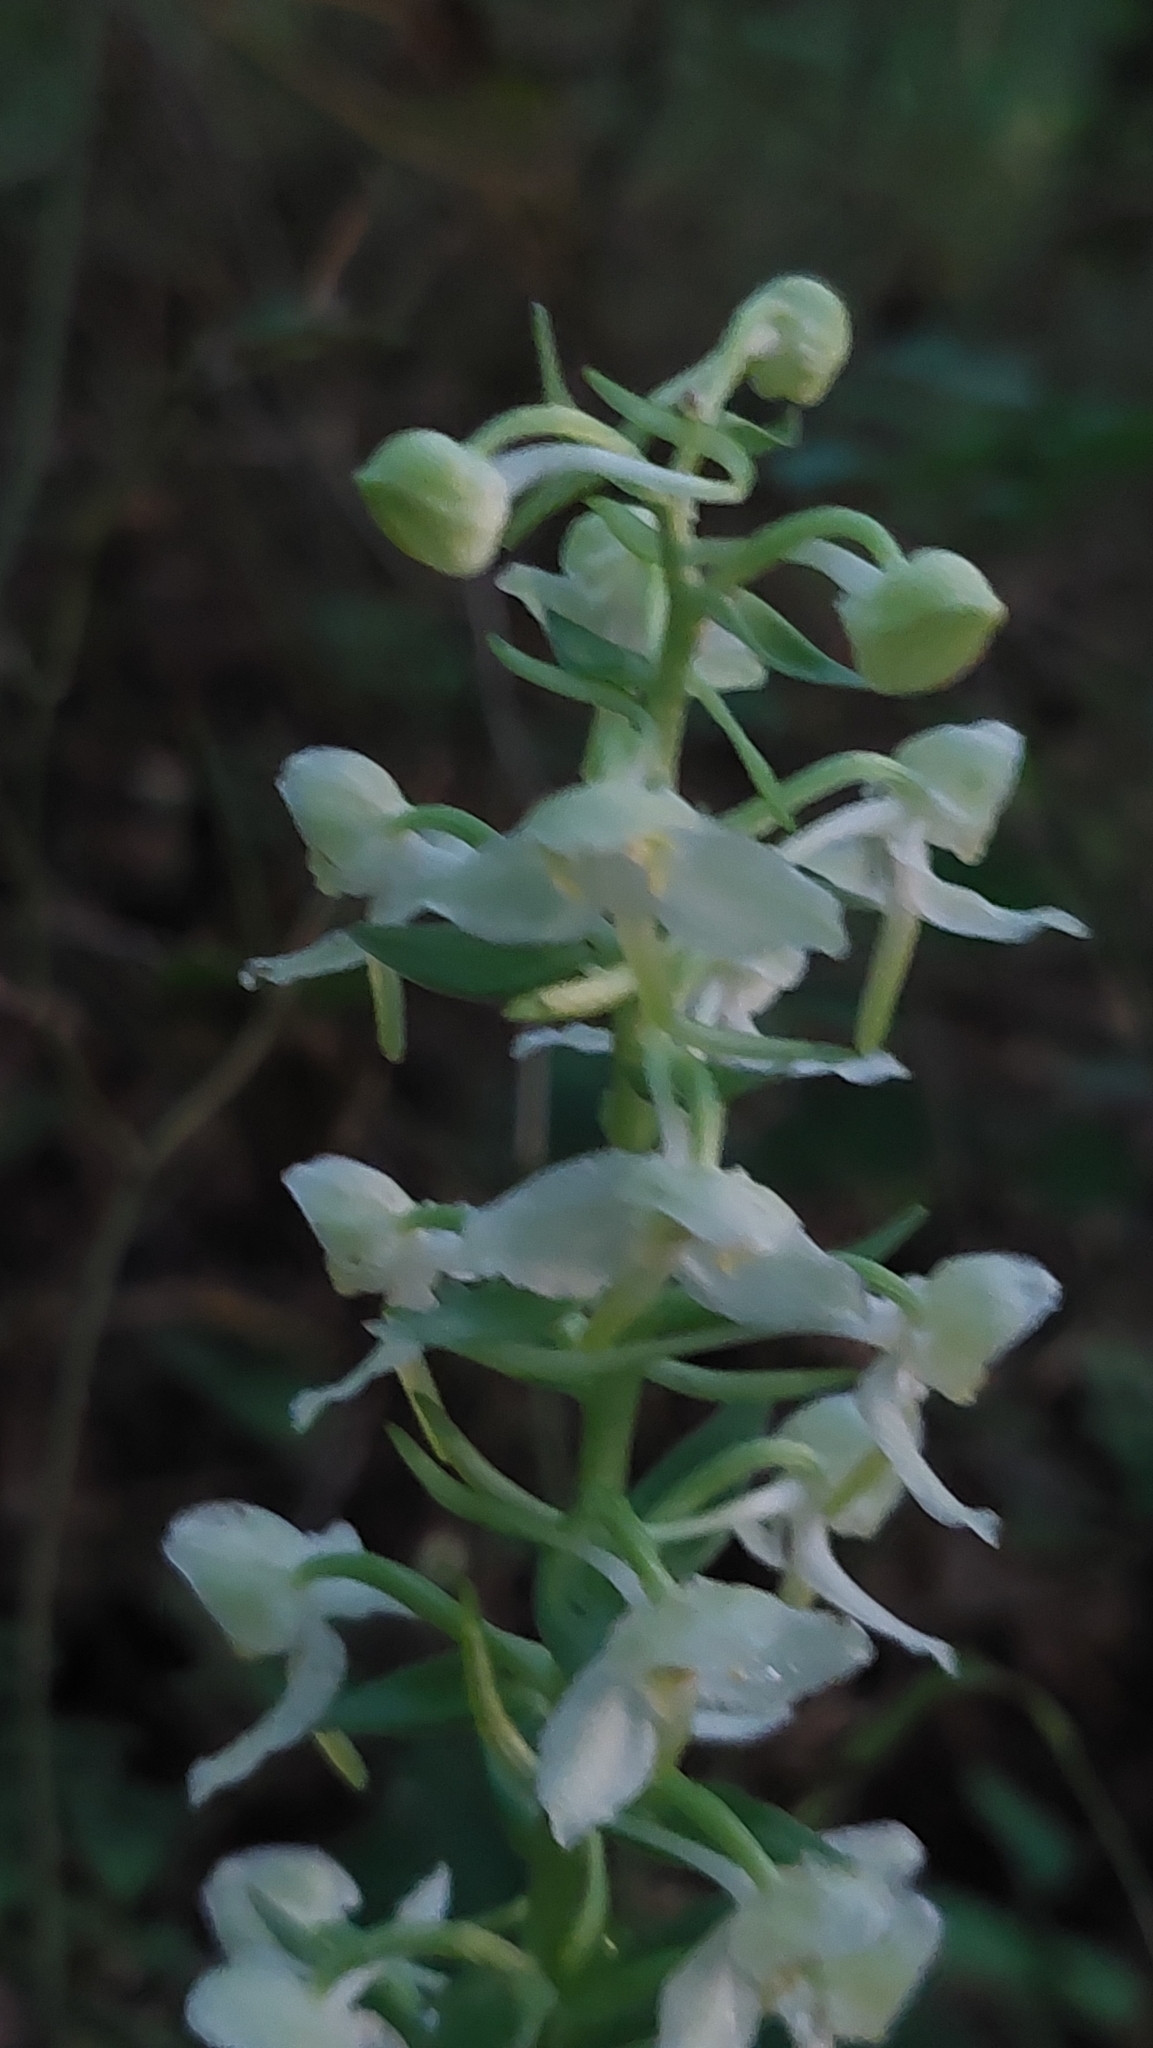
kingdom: Plantae
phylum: Tracheophyta
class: Liliopsida
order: Asparagales
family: Orchidaceae
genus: Platanthera
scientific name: Platanthera chlorantha
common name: Greater butterfly-orchid
